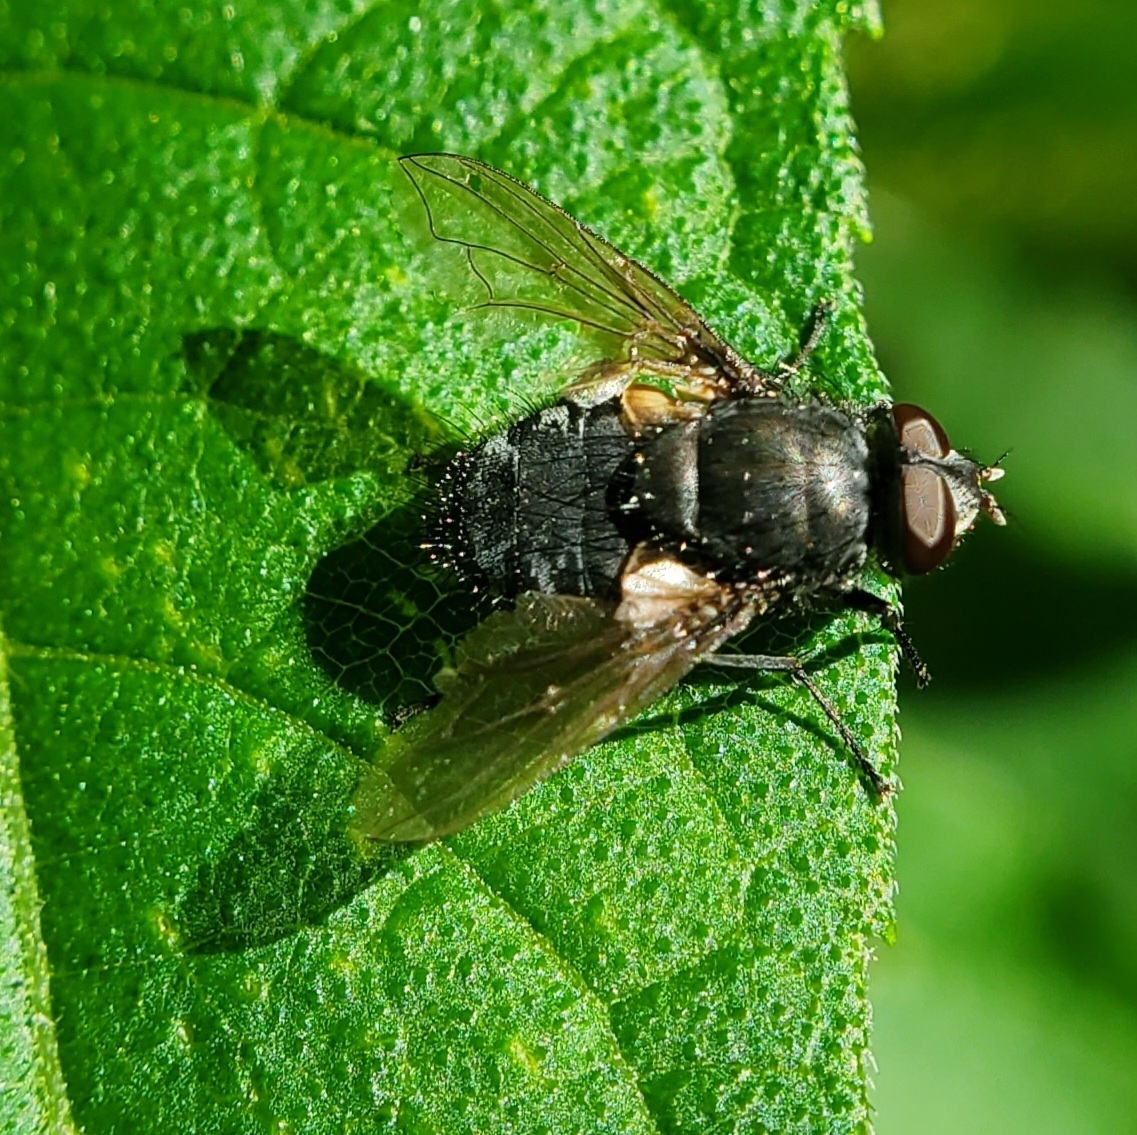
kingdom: Animalia
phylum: Arthropoda
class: Insecta
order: Diptera
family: Polleniidae
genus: Pollenia
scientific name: Pollenia
